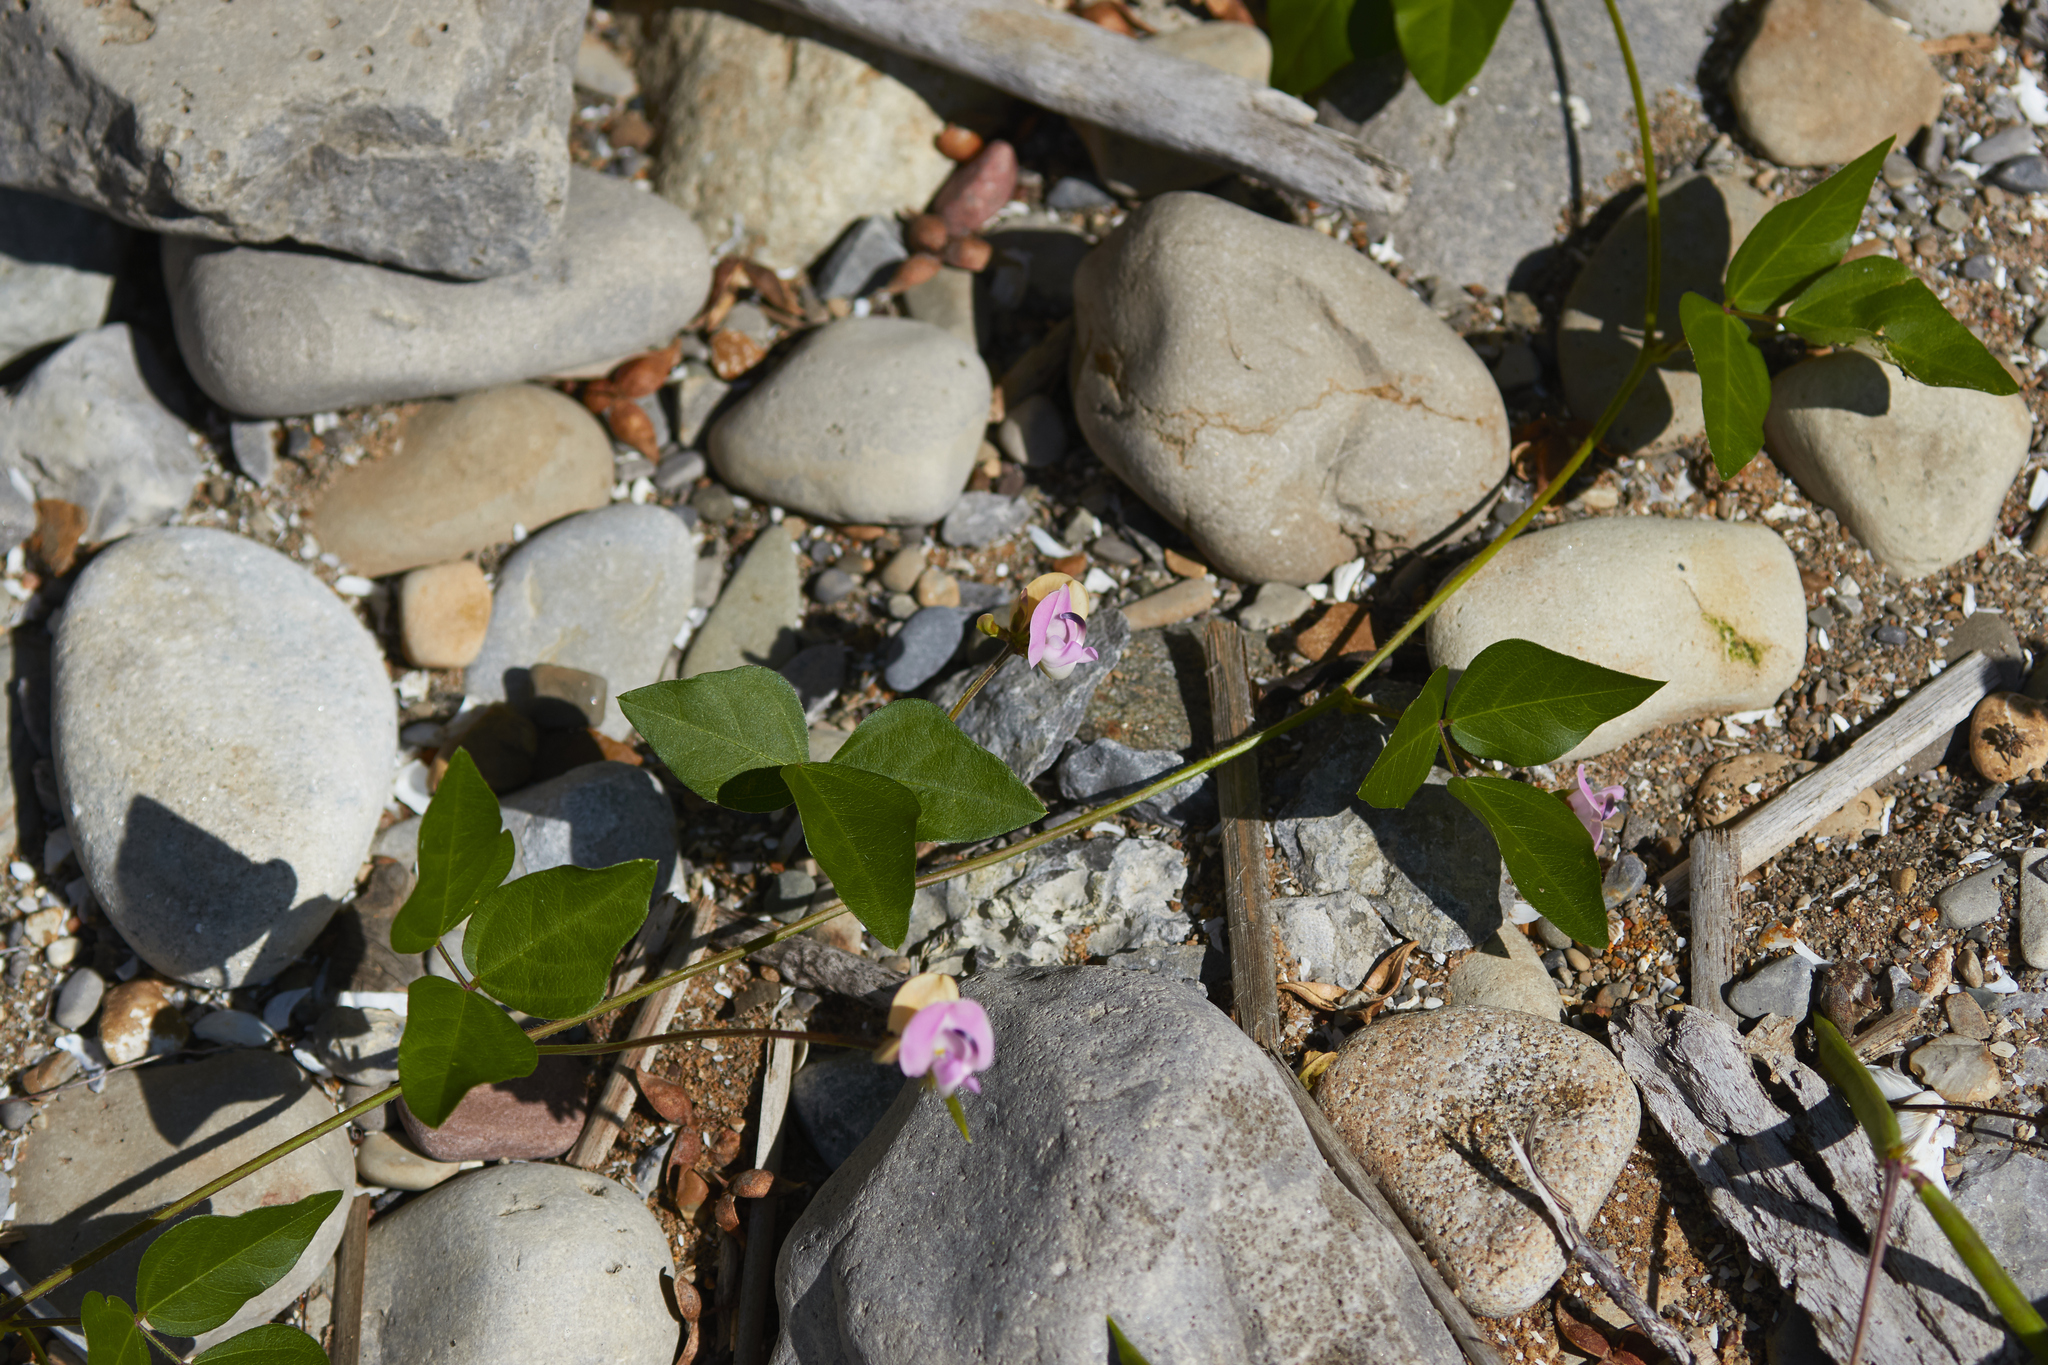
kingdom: Plantae
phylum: Tracheophyta
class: Magnoliopsida
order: Fabales
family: Fabaceae
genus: Strophostyles
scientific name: Strophostyles helvola
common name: Trailing wild bean
